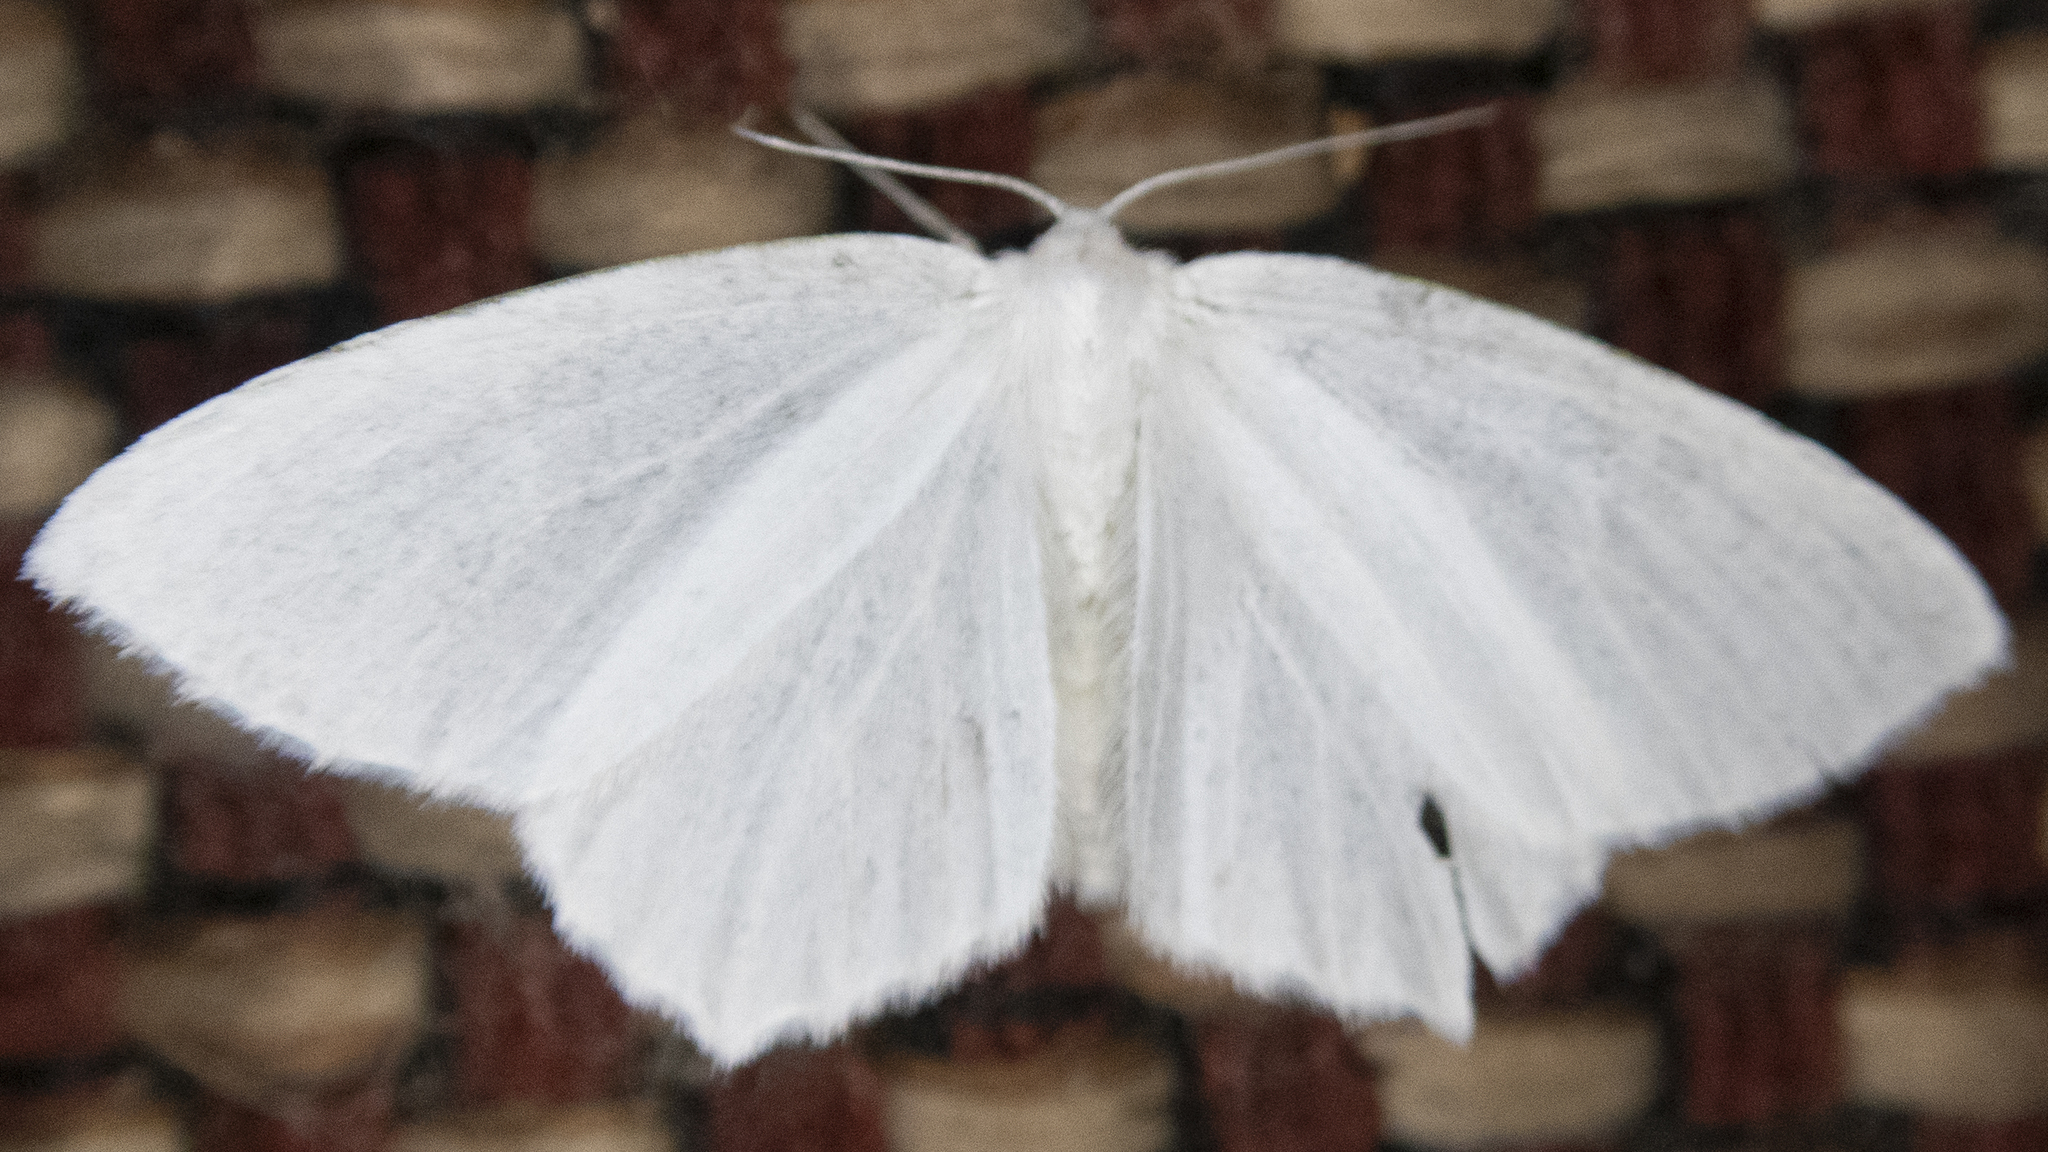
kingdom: Animalia
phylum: Arthropoda
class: Insecta
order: Lepidoptera
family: Geometridae
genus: Eugonobapta
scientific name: Eugonobapta nivosaria
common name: Snowy geometer
